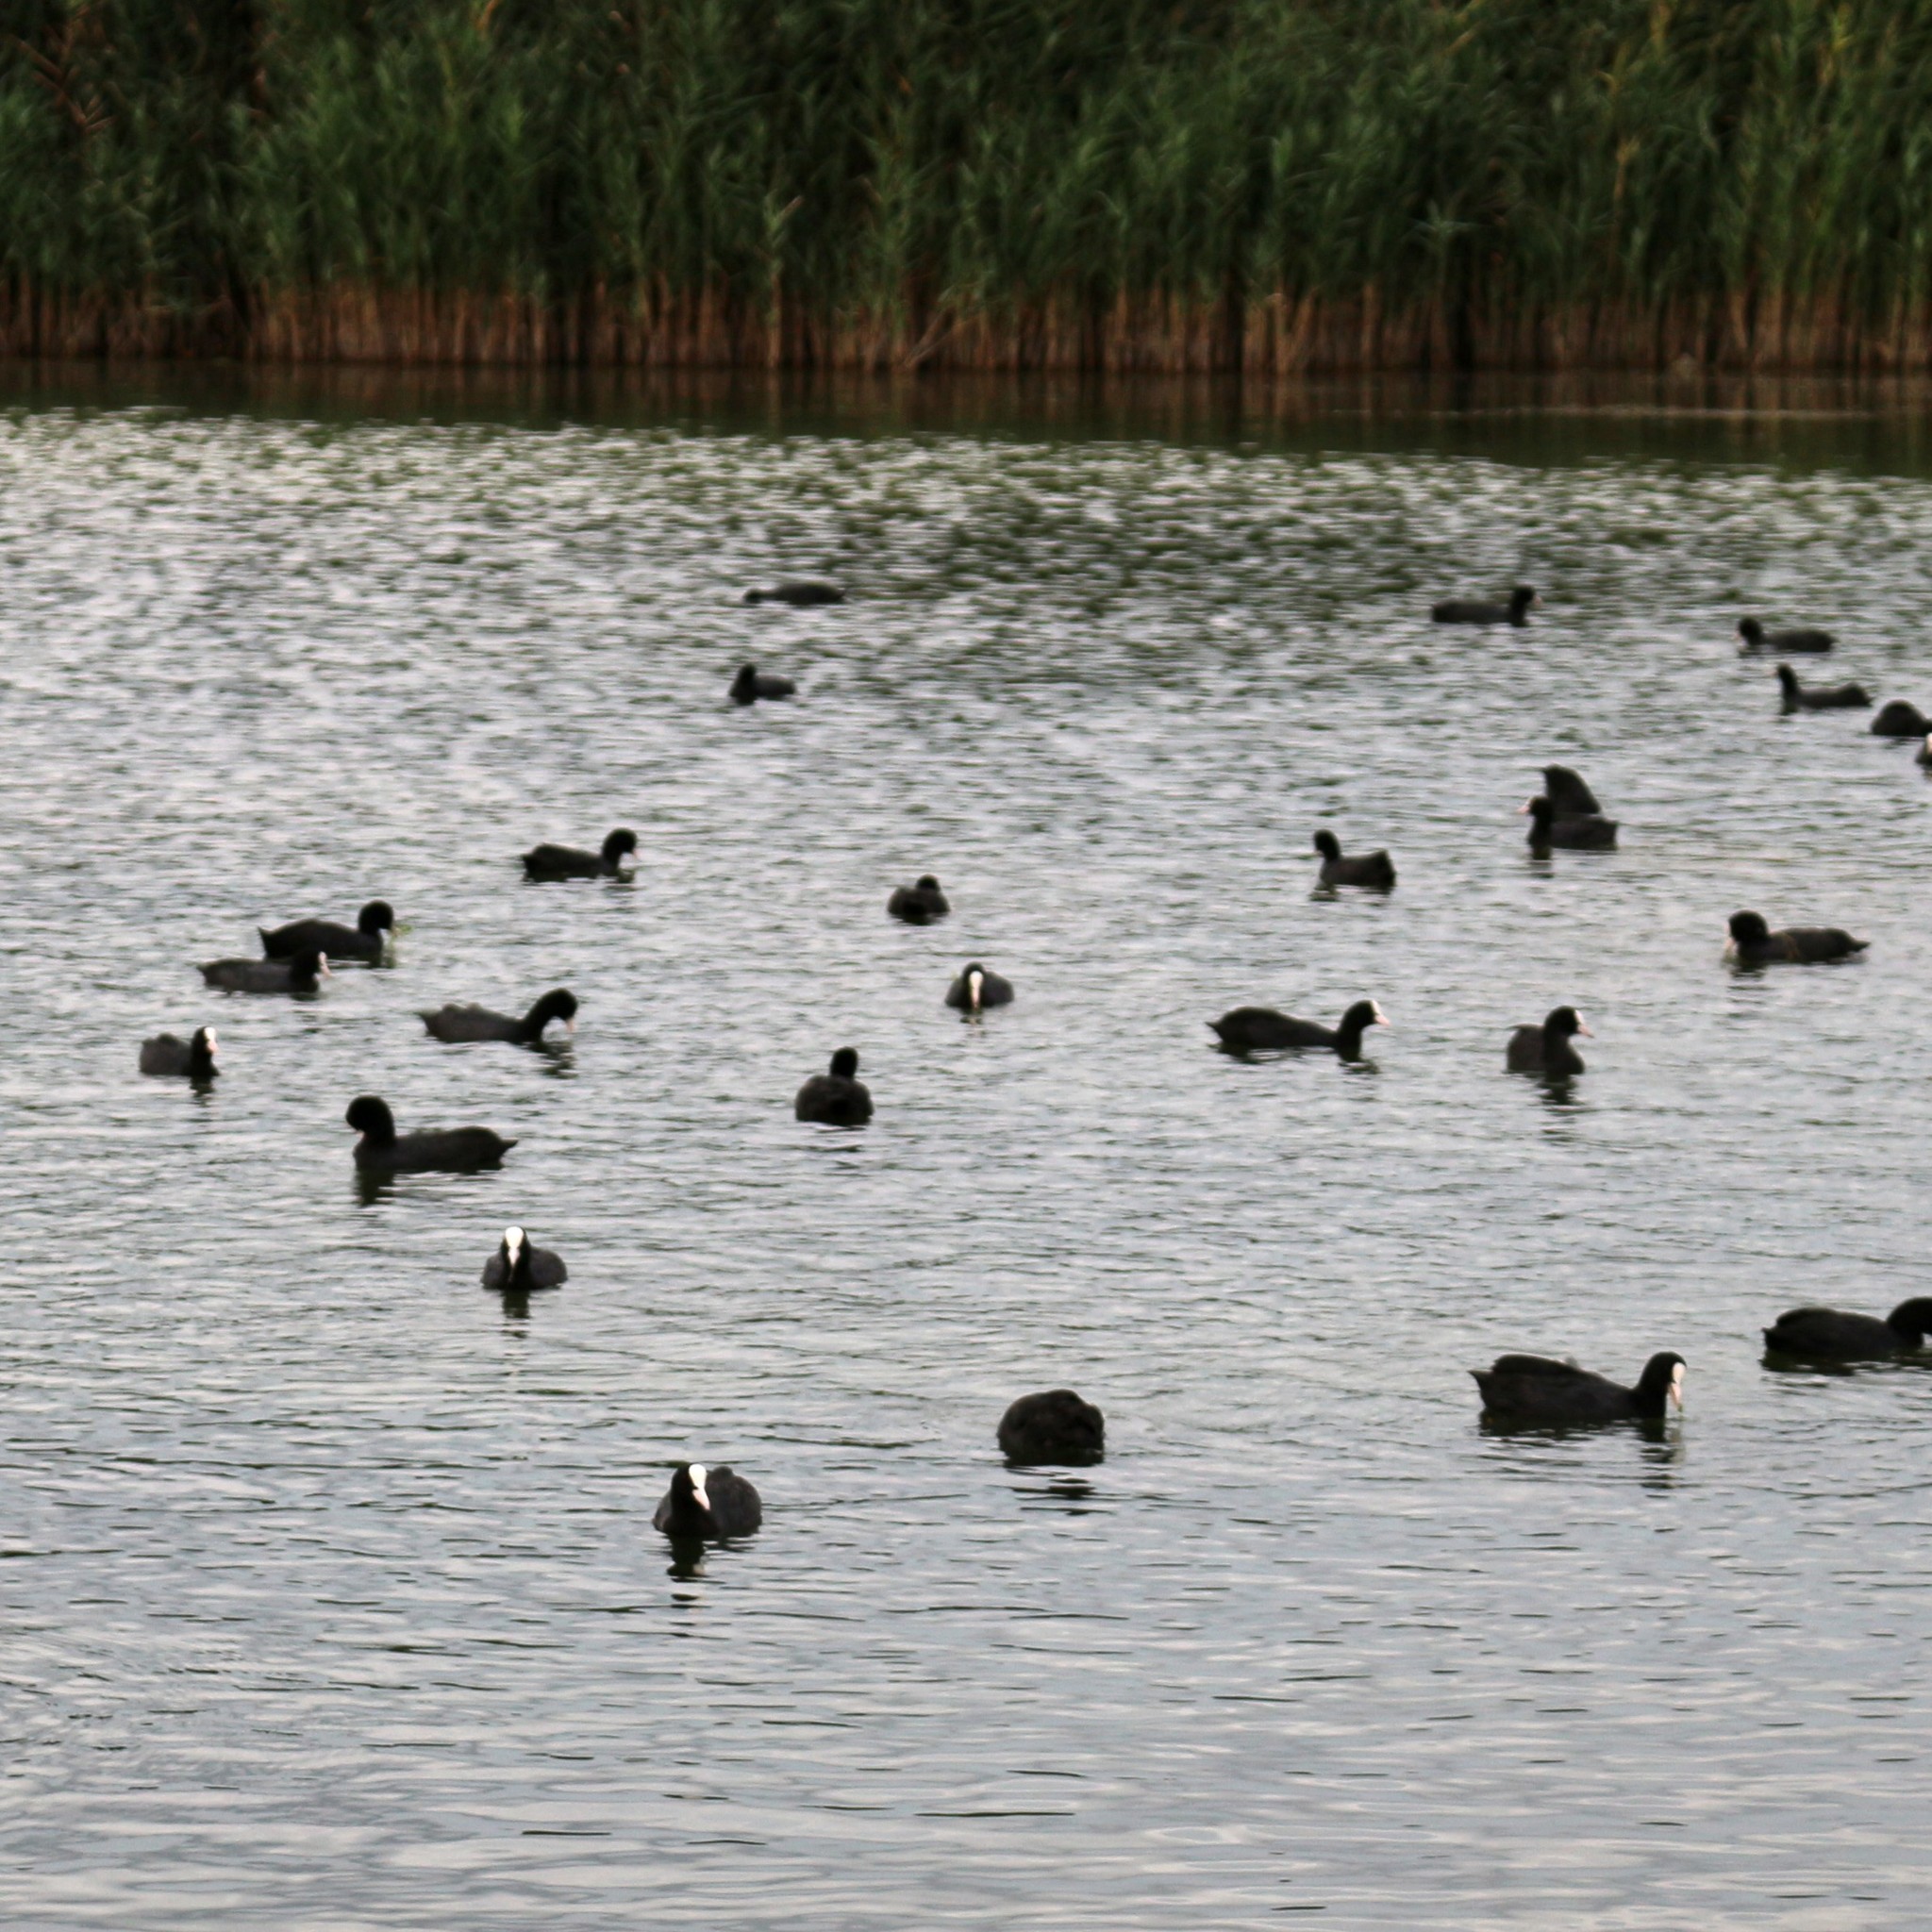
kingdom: Animalia
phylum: Chordata
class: Aves
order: Gruiformes
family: Rallidae
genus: Fulica
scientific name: Fulica atra
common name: Eurasian coot
